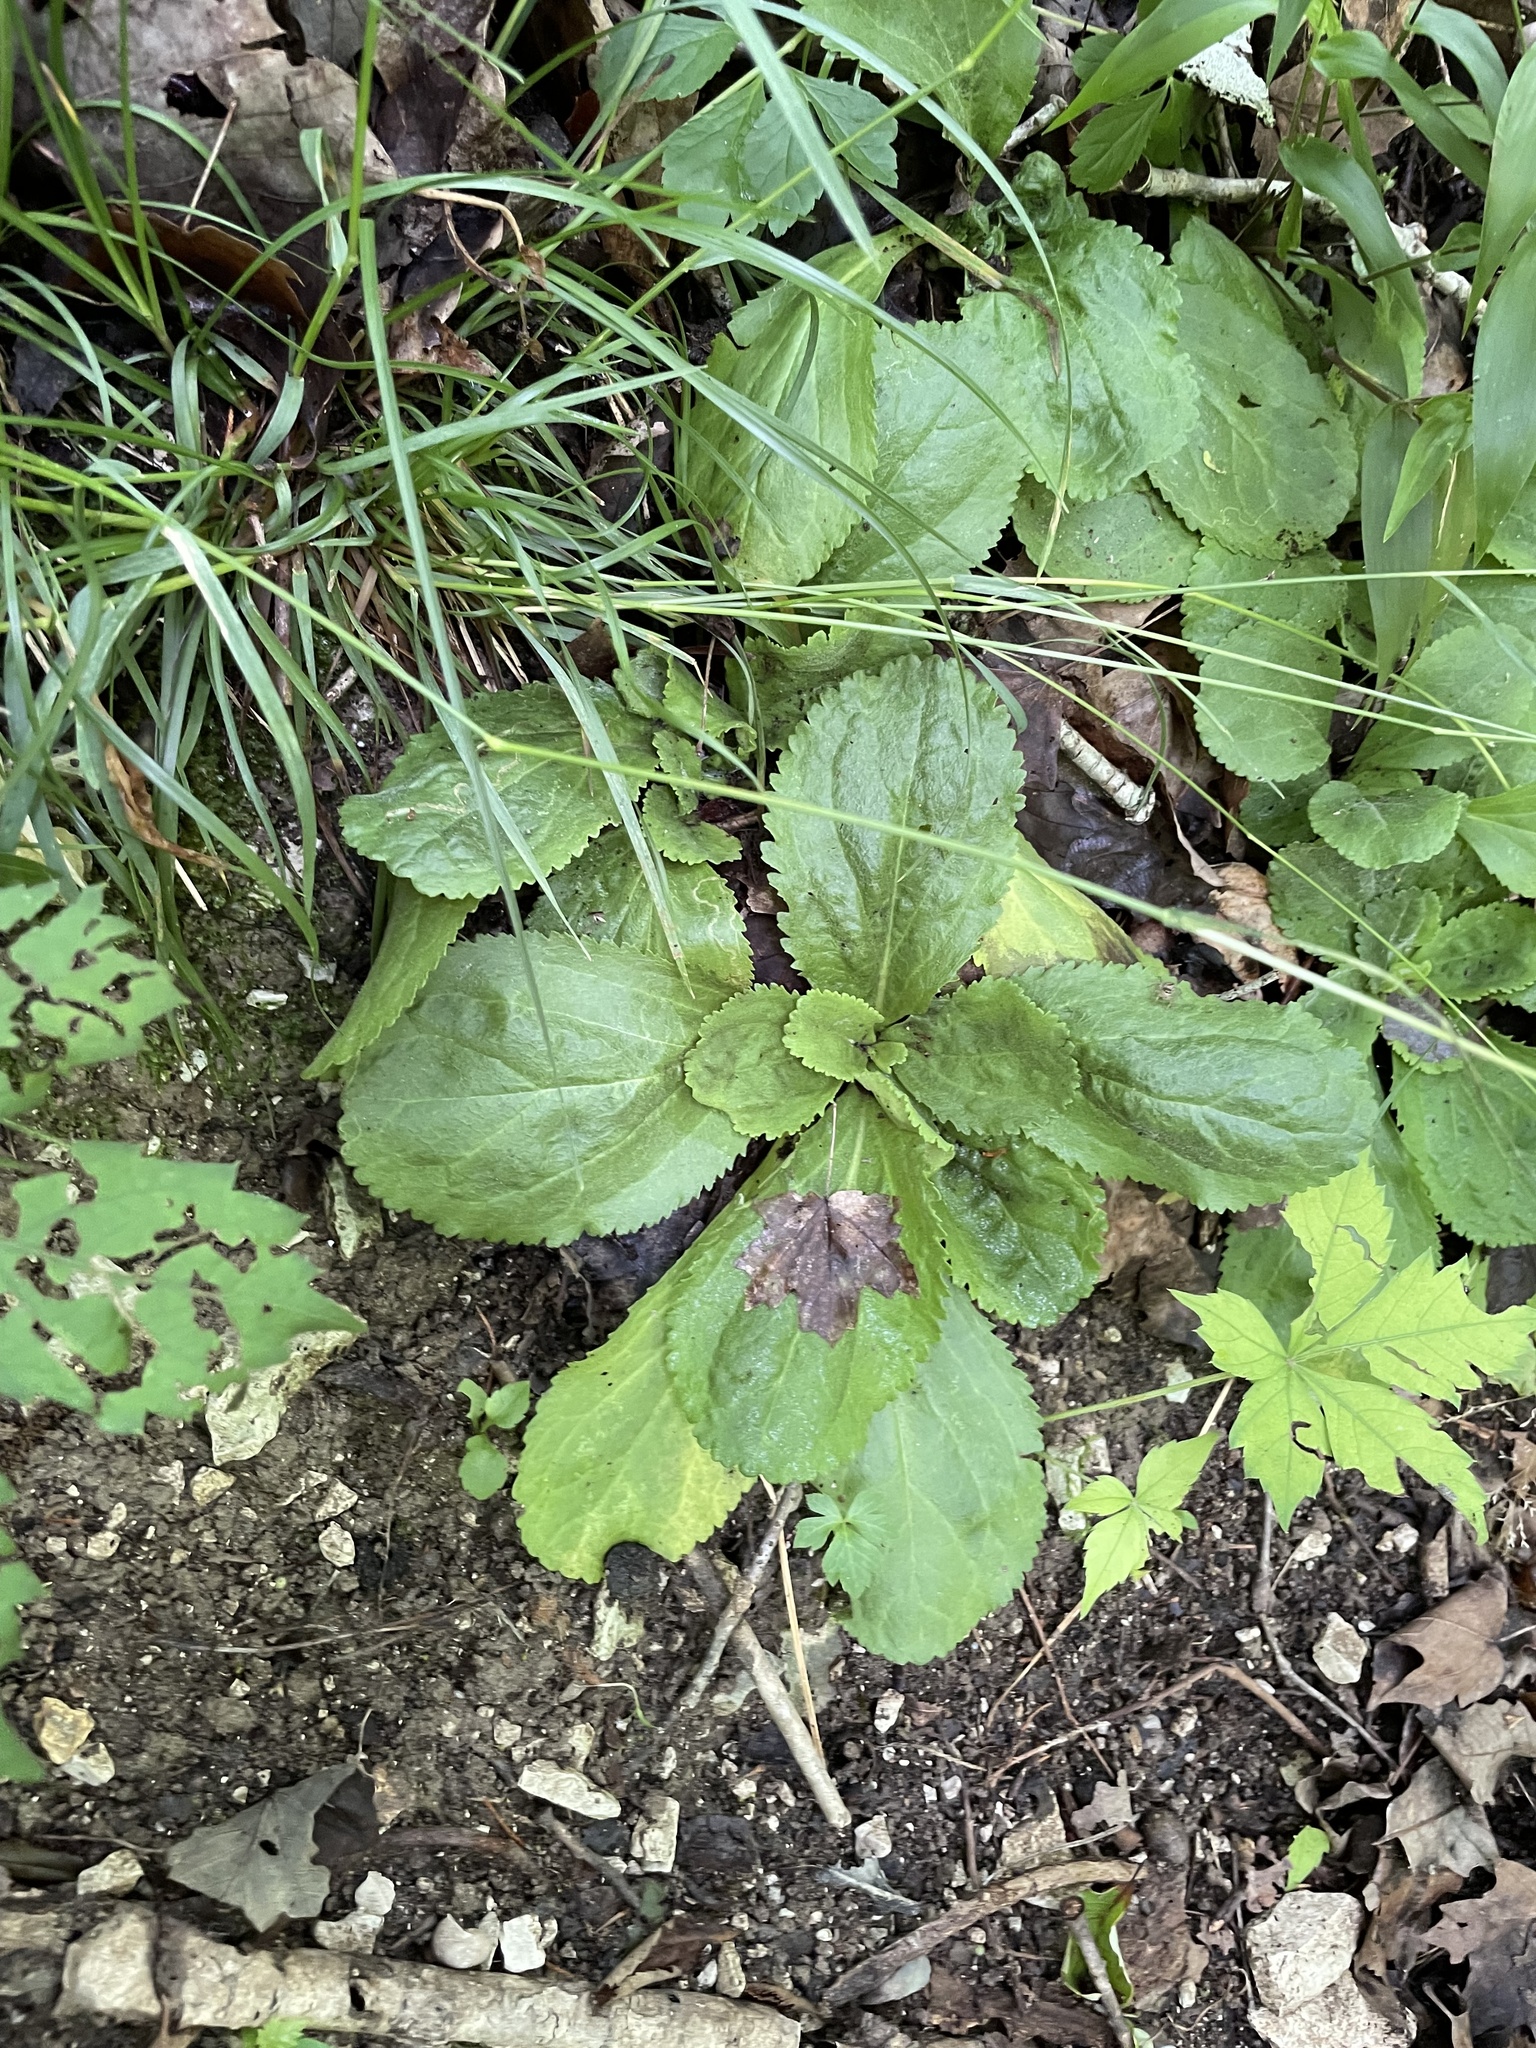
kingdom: Plantae
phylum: Tracheophyta
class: Magnoliopsida
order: Asterales
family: Asteraceae
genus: Packera
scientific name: Packera obovata
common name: Round-leaf ragwort
